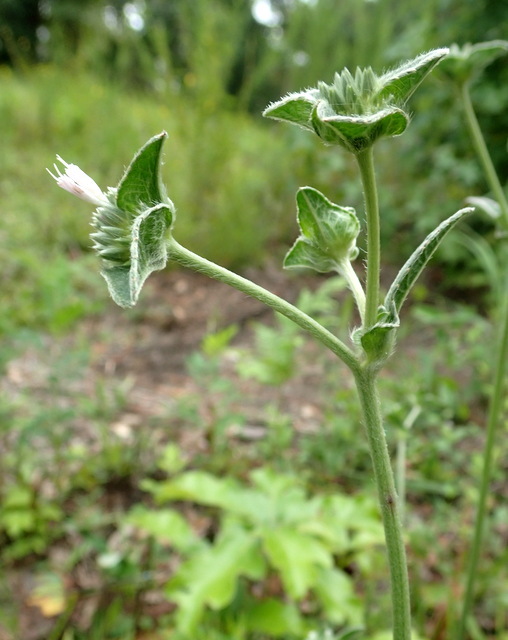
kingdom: Plantae
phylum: Tracheophyta
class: Magnoliopsida
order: Asterales
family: Asteraceae
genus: Elephantopus
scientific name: Elephantopus elatus
